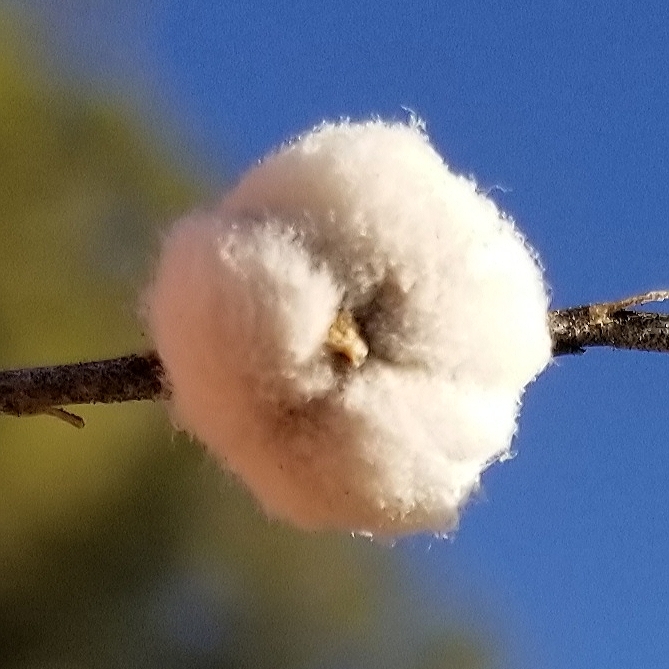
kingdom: Animalia
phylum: Arthropoda
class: Insecta
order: Diptera
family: Tephritidae
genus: Aciurina
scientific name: Aciurina bigeloviae
